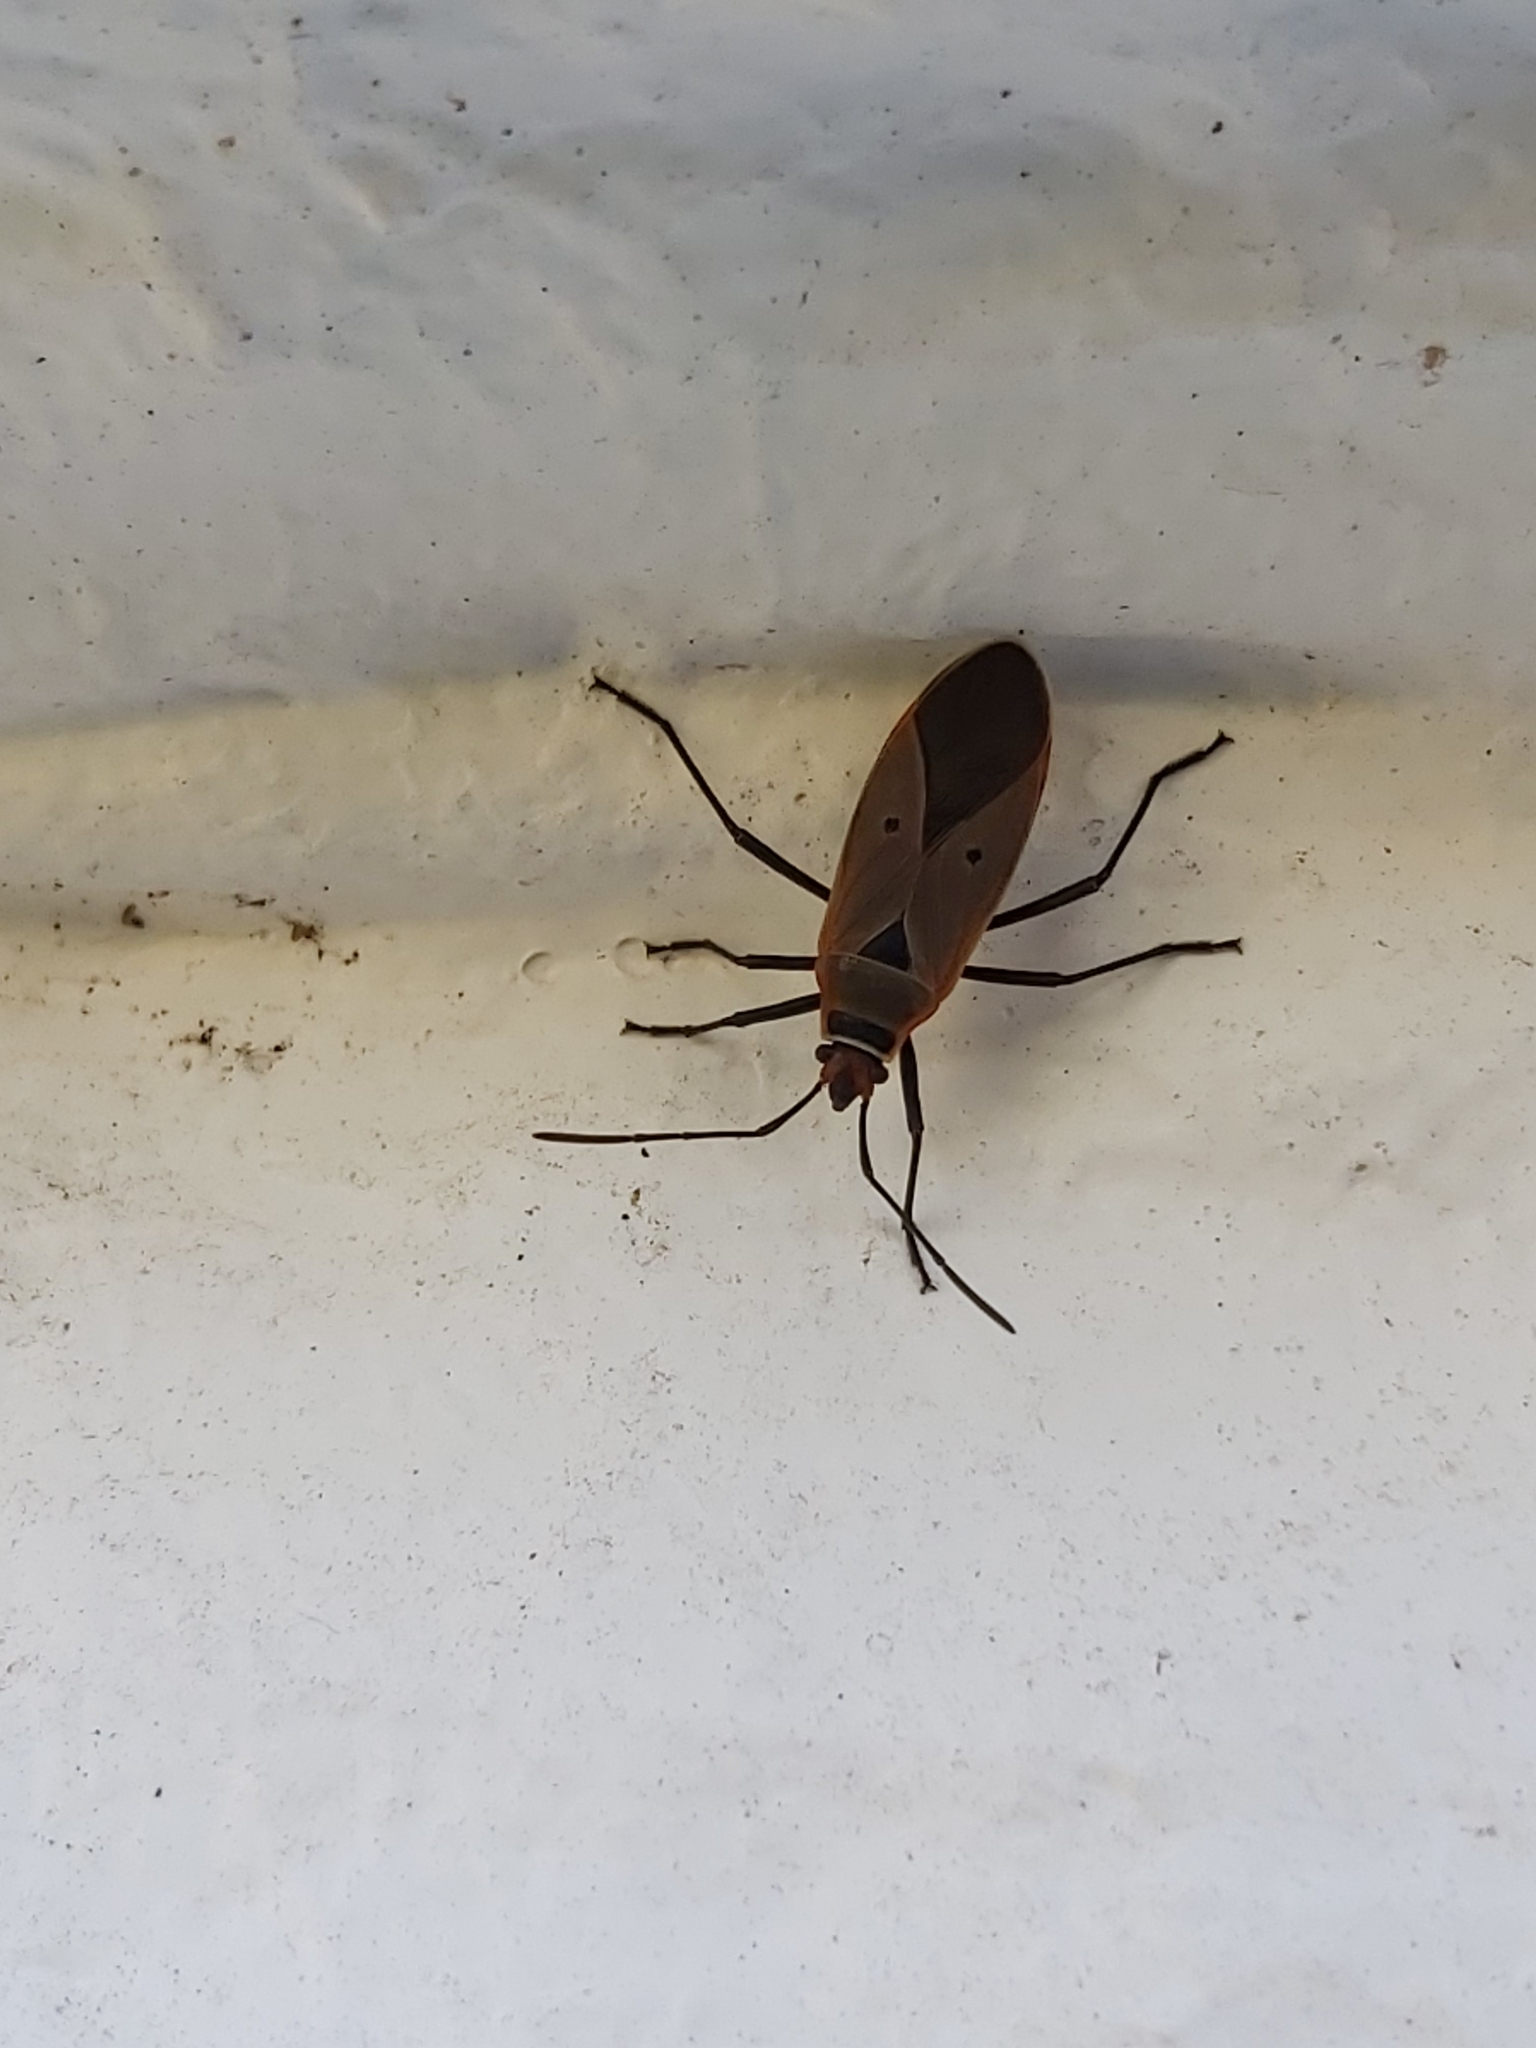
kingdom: Animalia
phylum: Arthropoda
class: Insecta
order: Hemiptera
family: Pyrrhocoridae
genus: Dysdercus
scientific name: Dysdercus sidae
